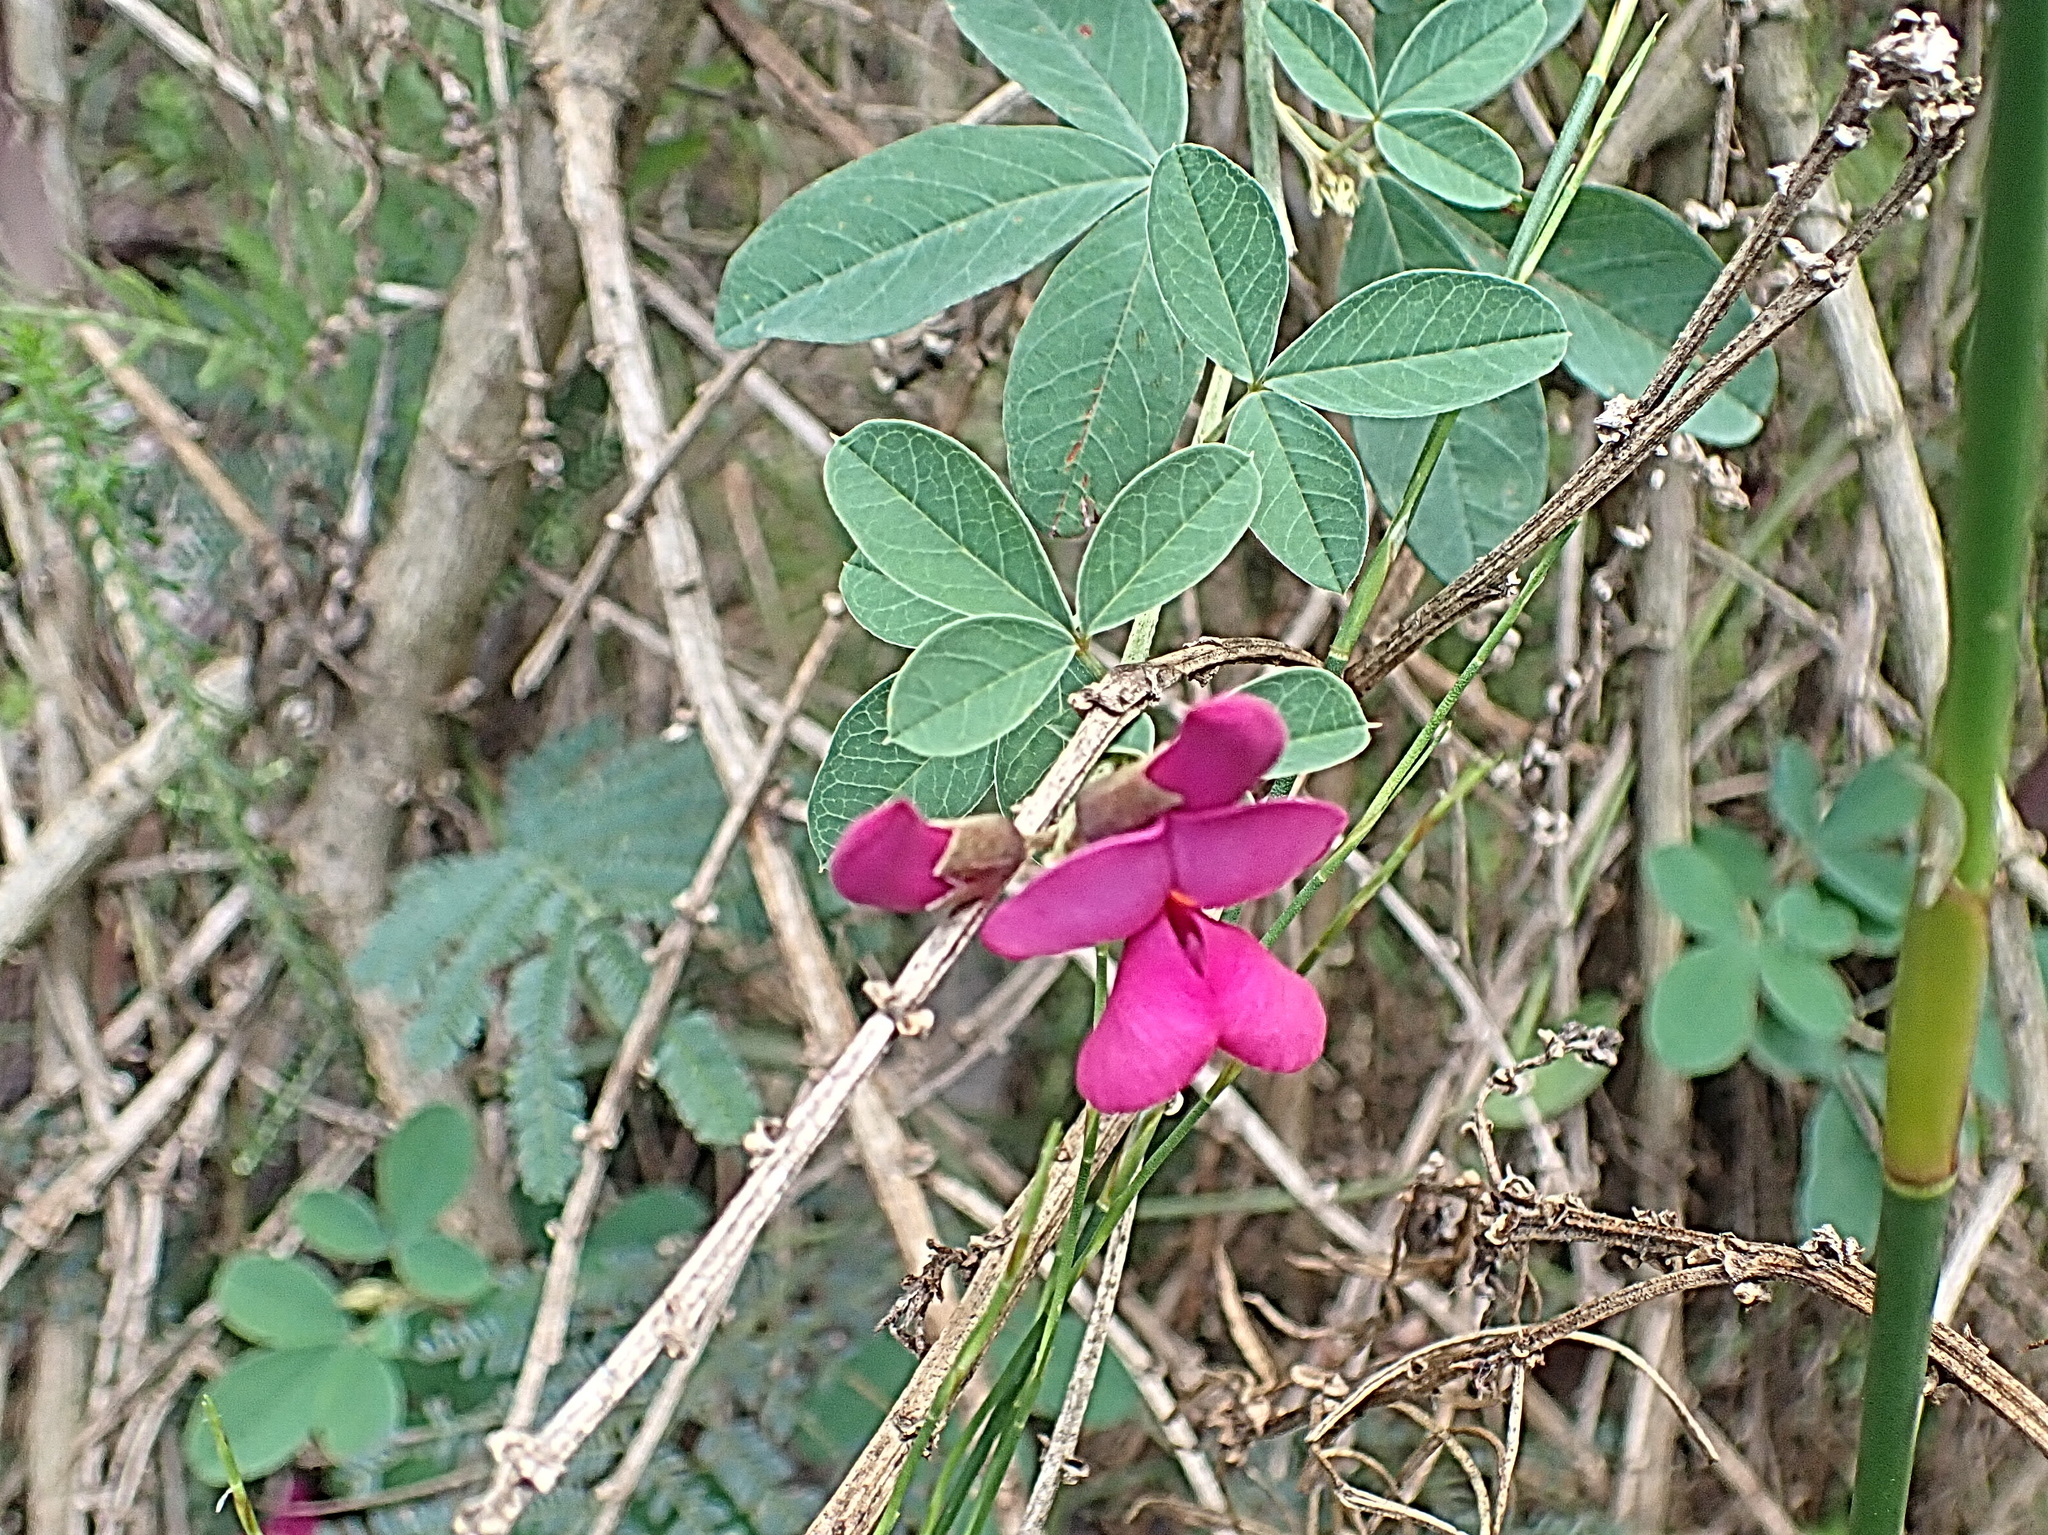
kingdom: Plantae
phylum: Tracheophyta
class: Magnoliopsida
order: Fabales
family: Fabaceae
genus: Hypocalyptus
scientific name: Hypocalyptus coluteoides
